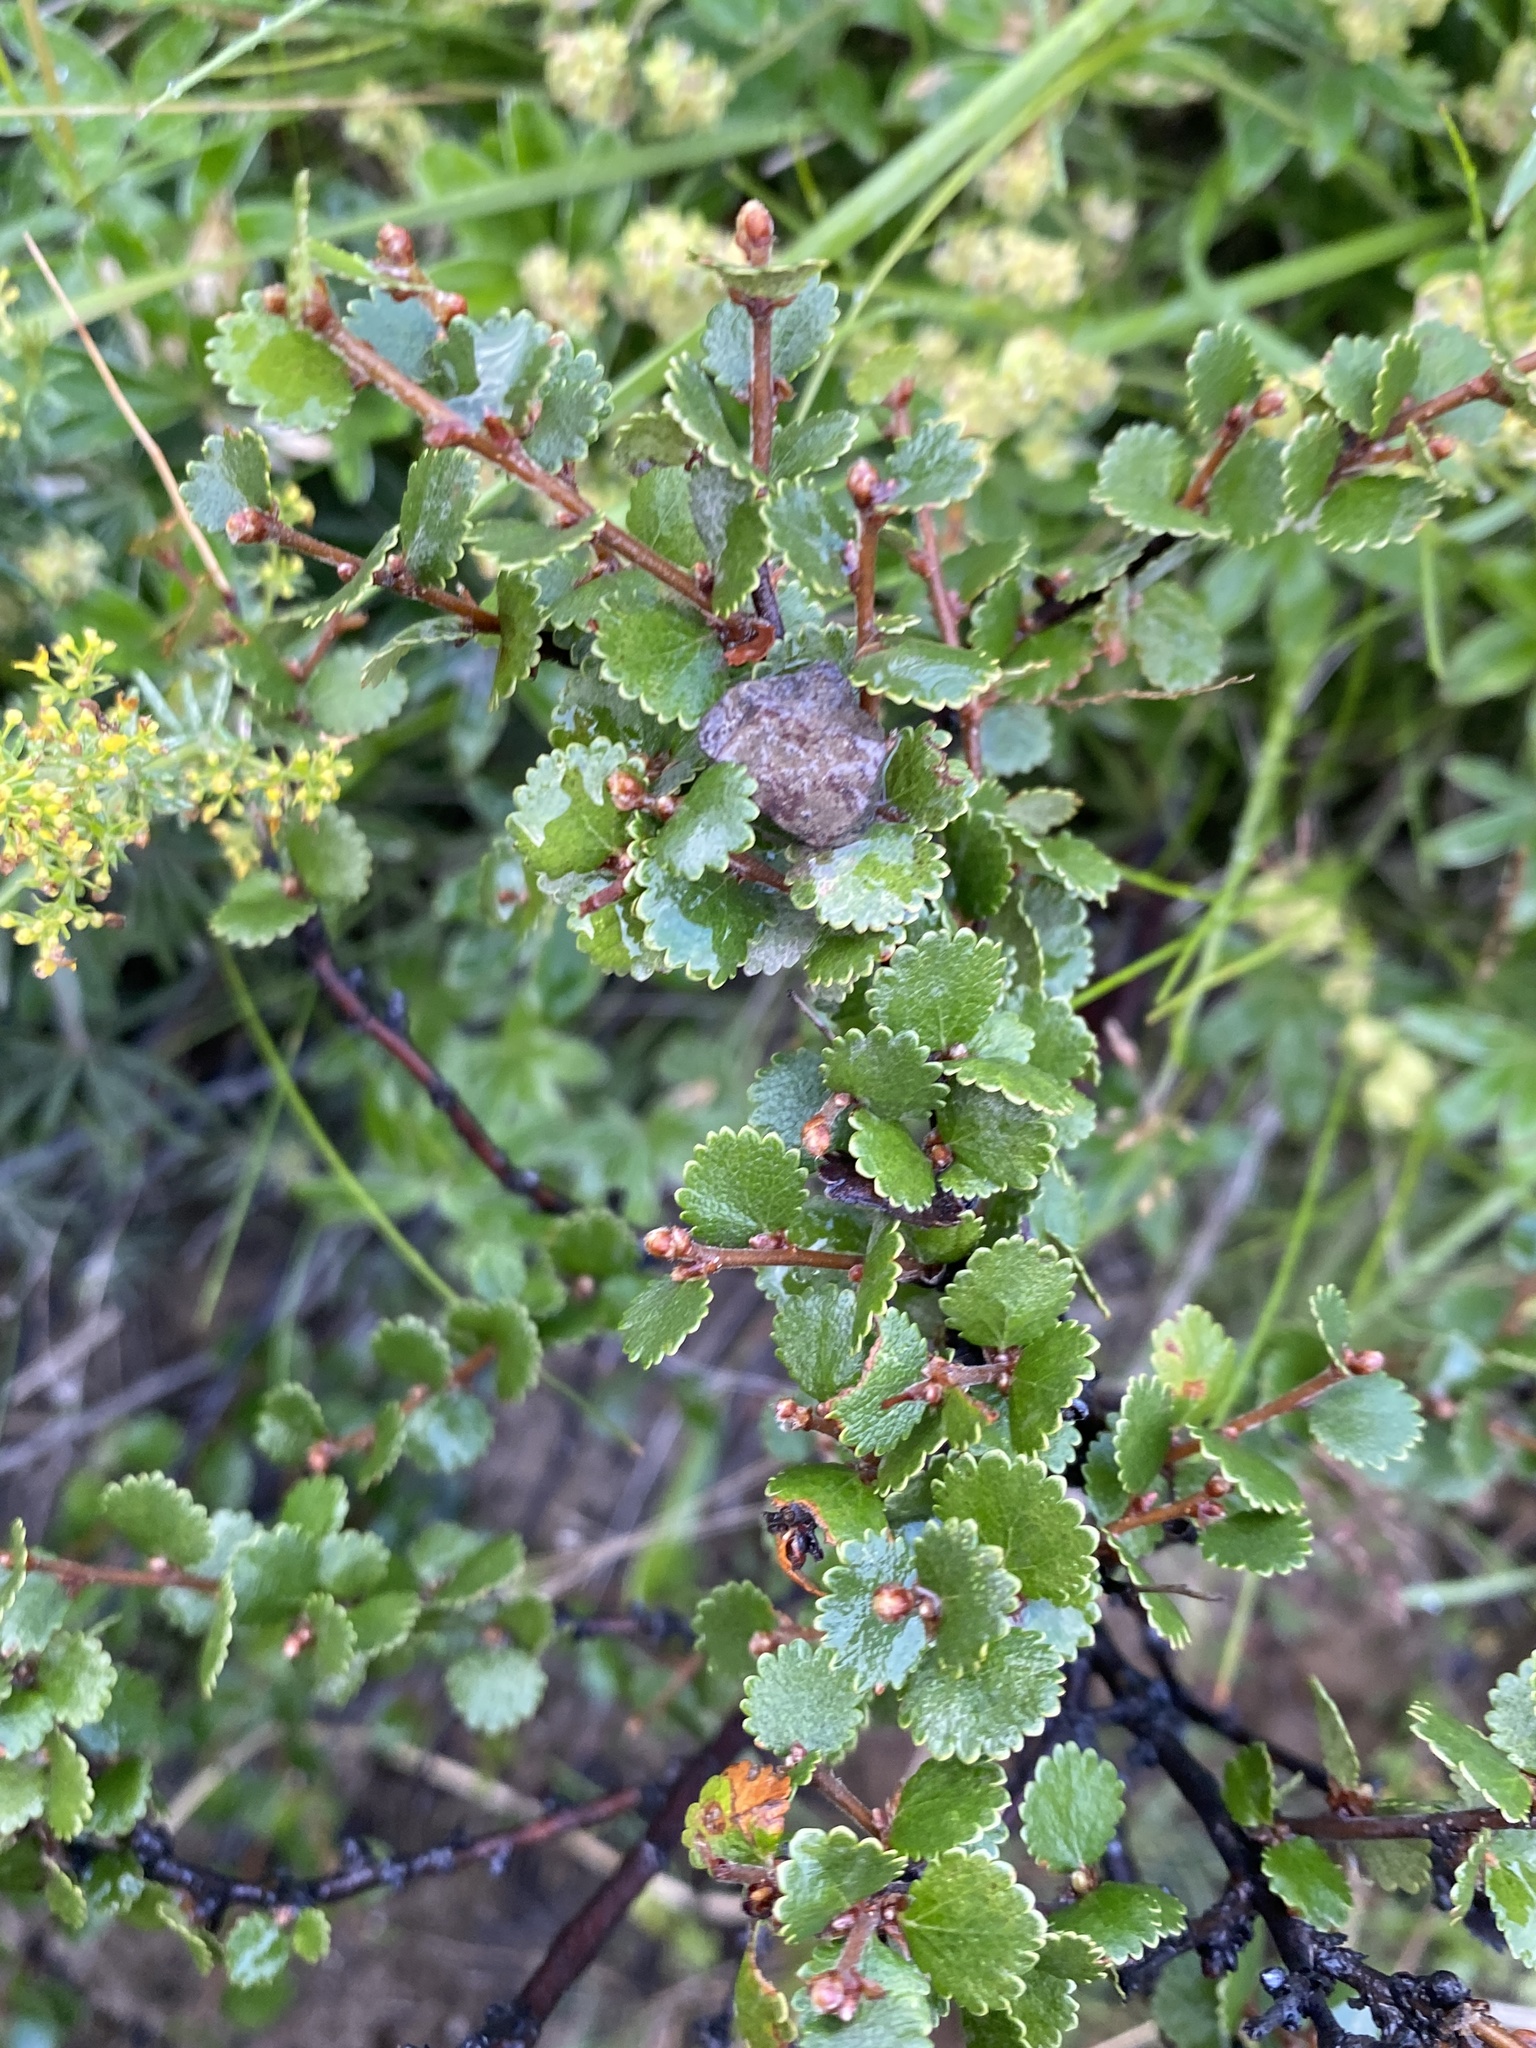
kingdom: Plantae
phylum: Tracheophyta
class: Magnoliopsida
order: Fagales
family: Betulaceae
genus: Betula
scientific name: Betula nana
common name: Arctic dwarf birch
